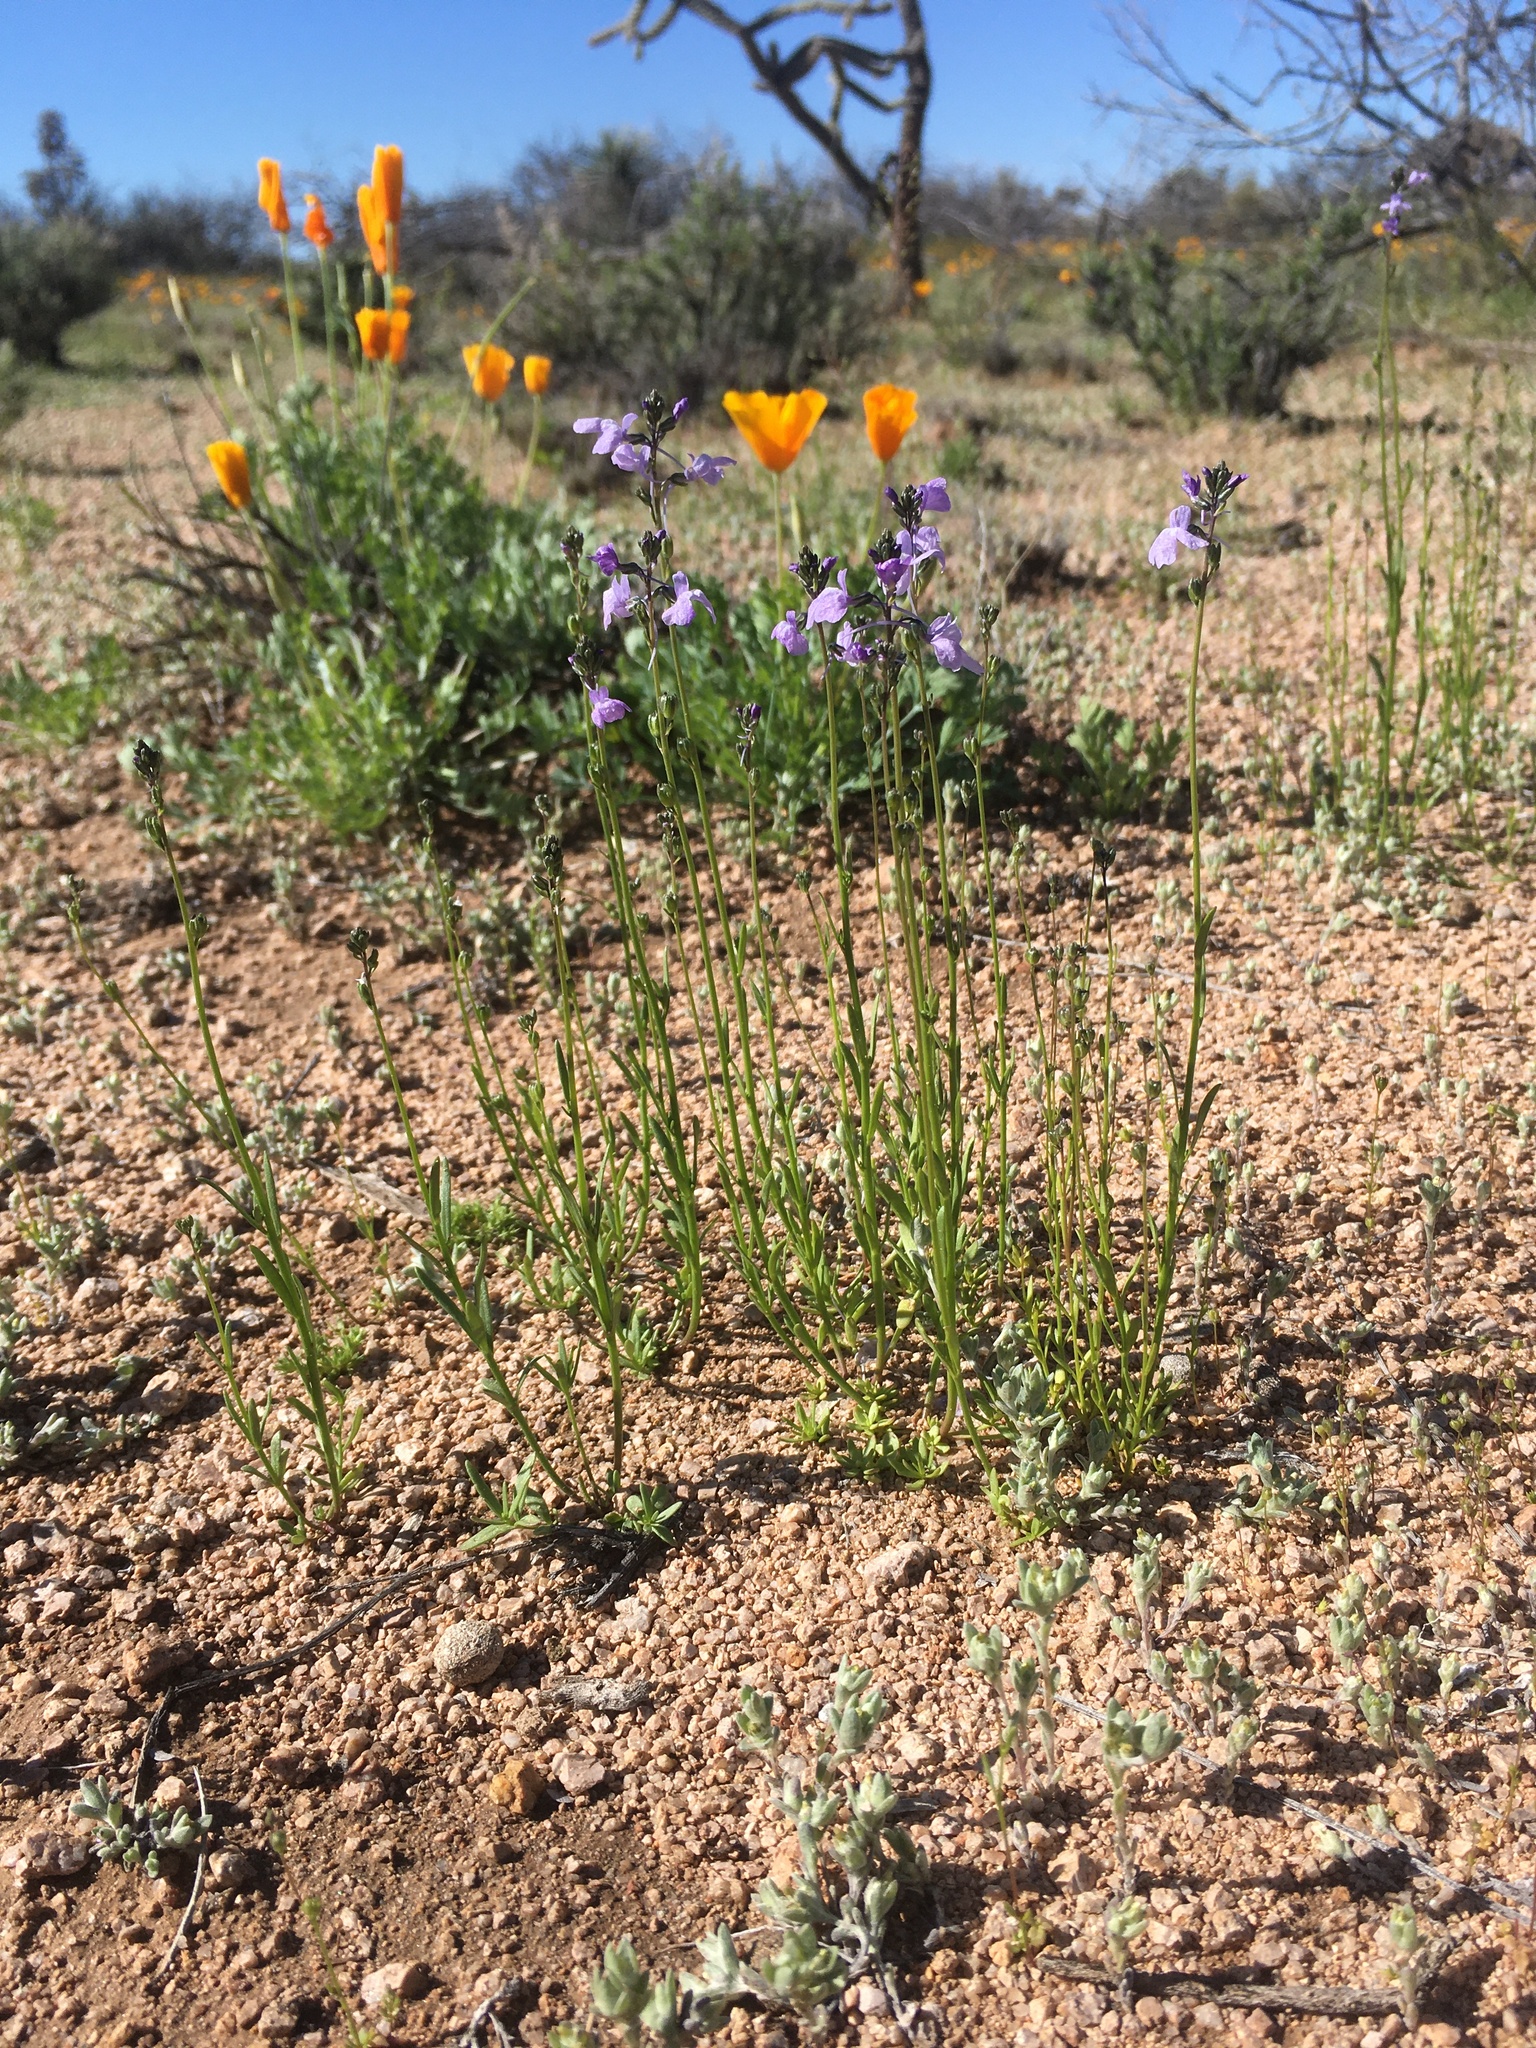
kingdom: Plantae
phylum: Tracheophyta
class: Magnoliopsida
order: Lamiales
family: Plantaginaceae
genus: Nuttallanthus
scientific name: Nuttallanthus texanus
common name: Texas toadflax
